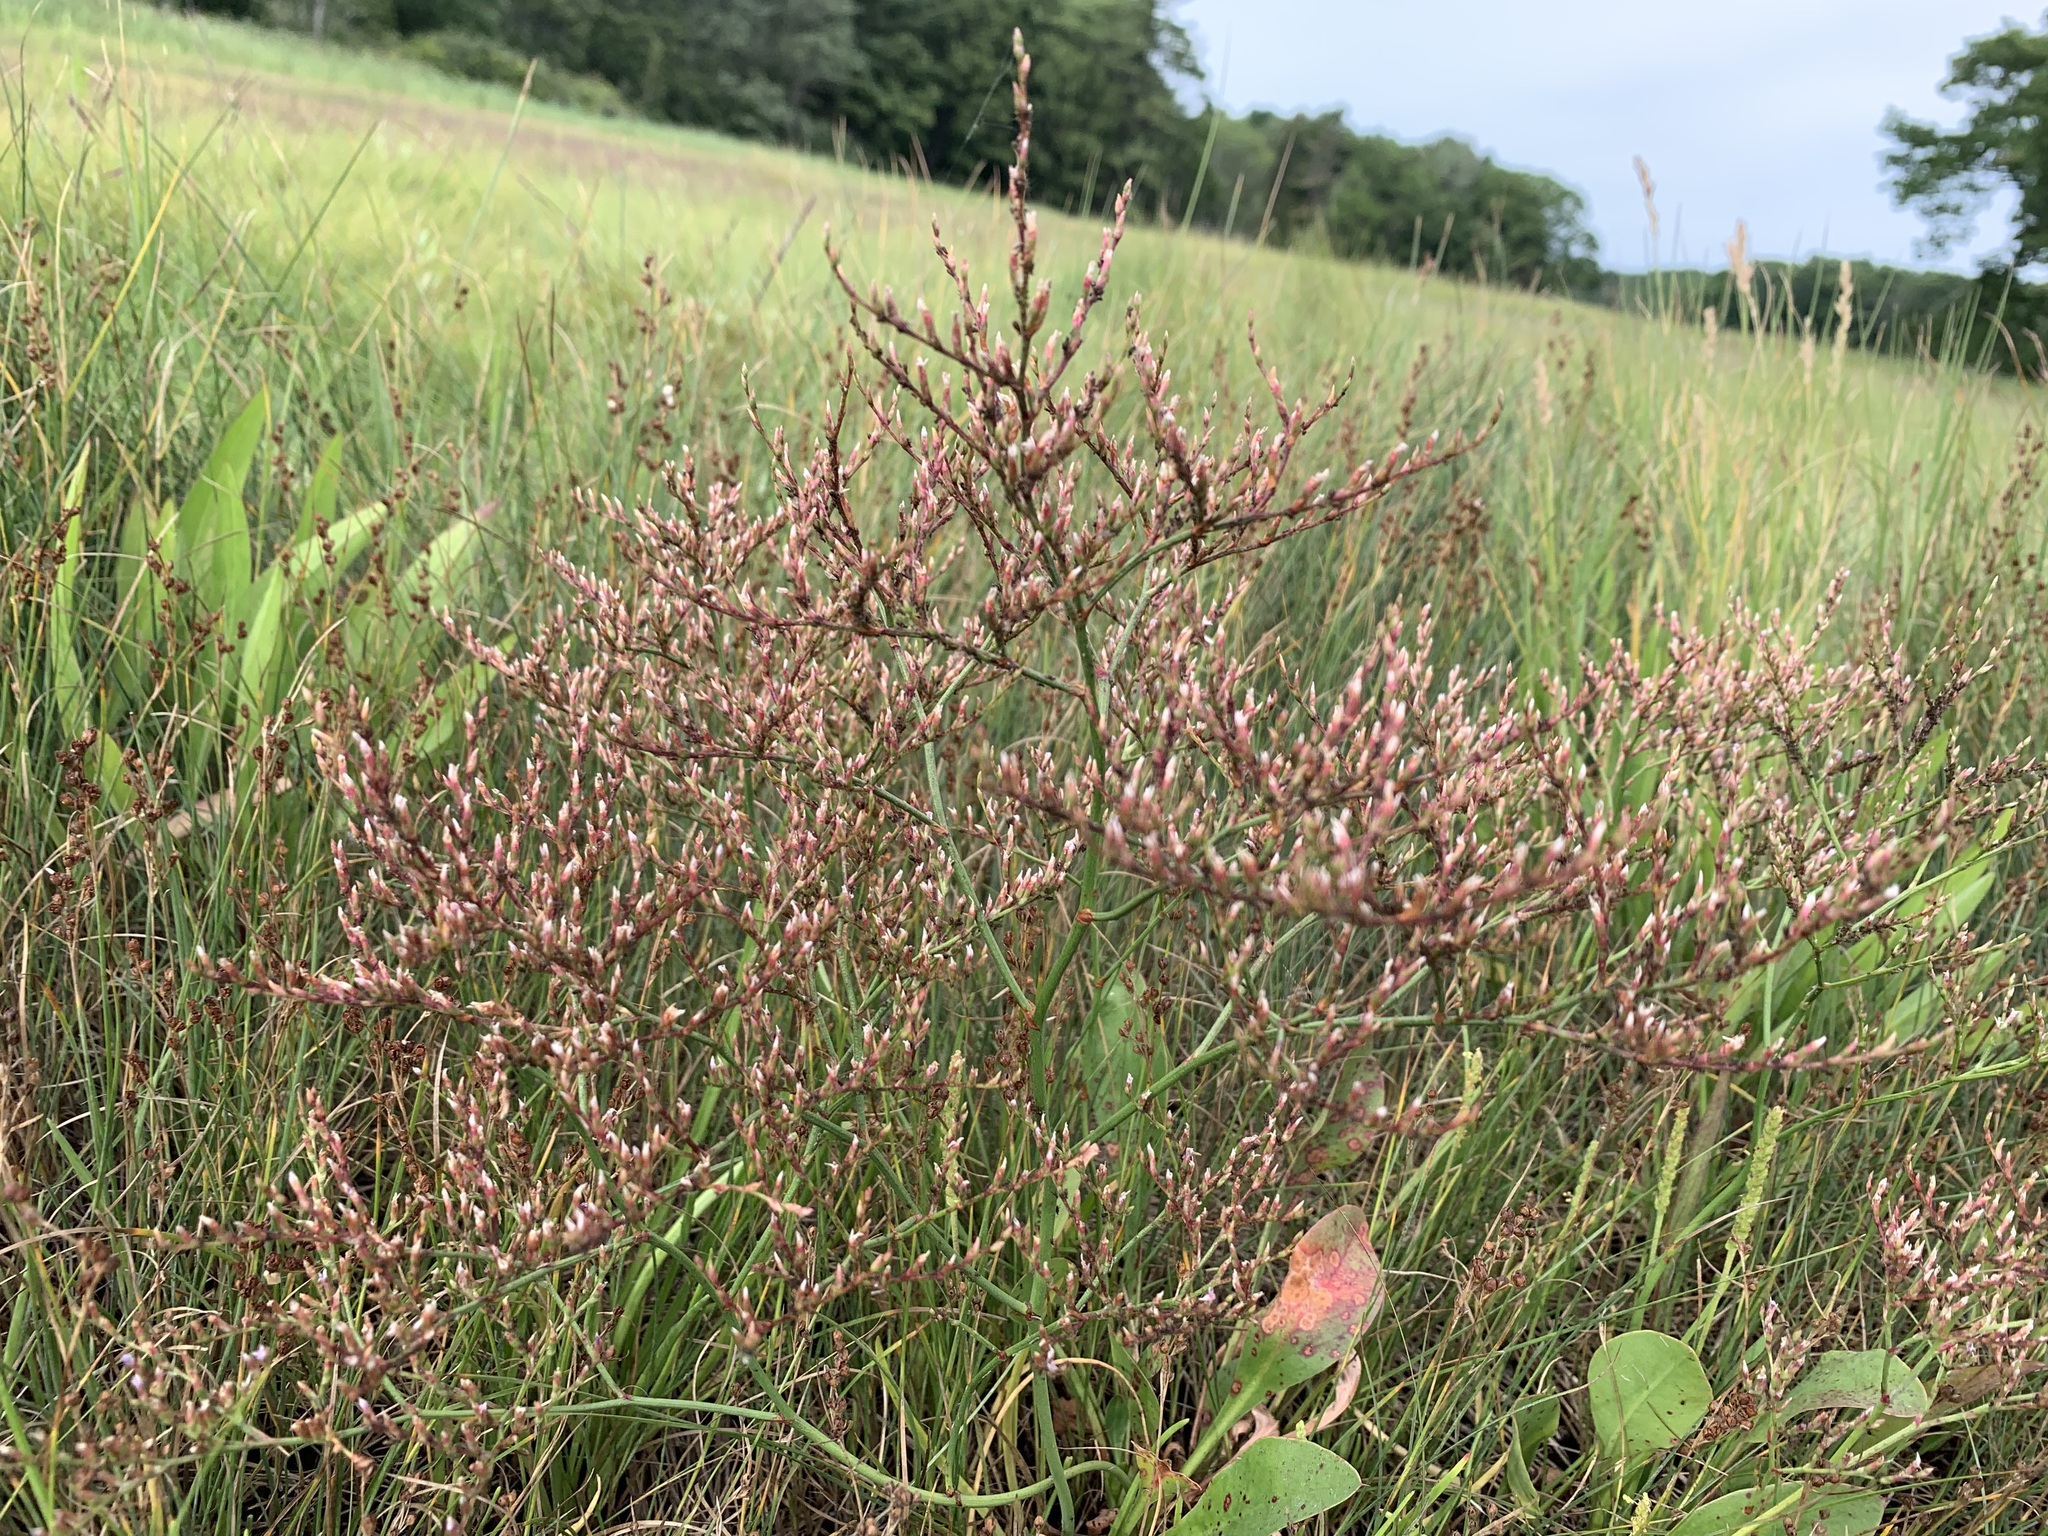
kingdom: Plantae
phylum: Tracheophyta
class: Magnoliopsida
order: Caryophyllales
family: Plumbaginaceae
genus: Limonium
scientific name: Limonium carolinianum
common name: Carolina sea lavender
